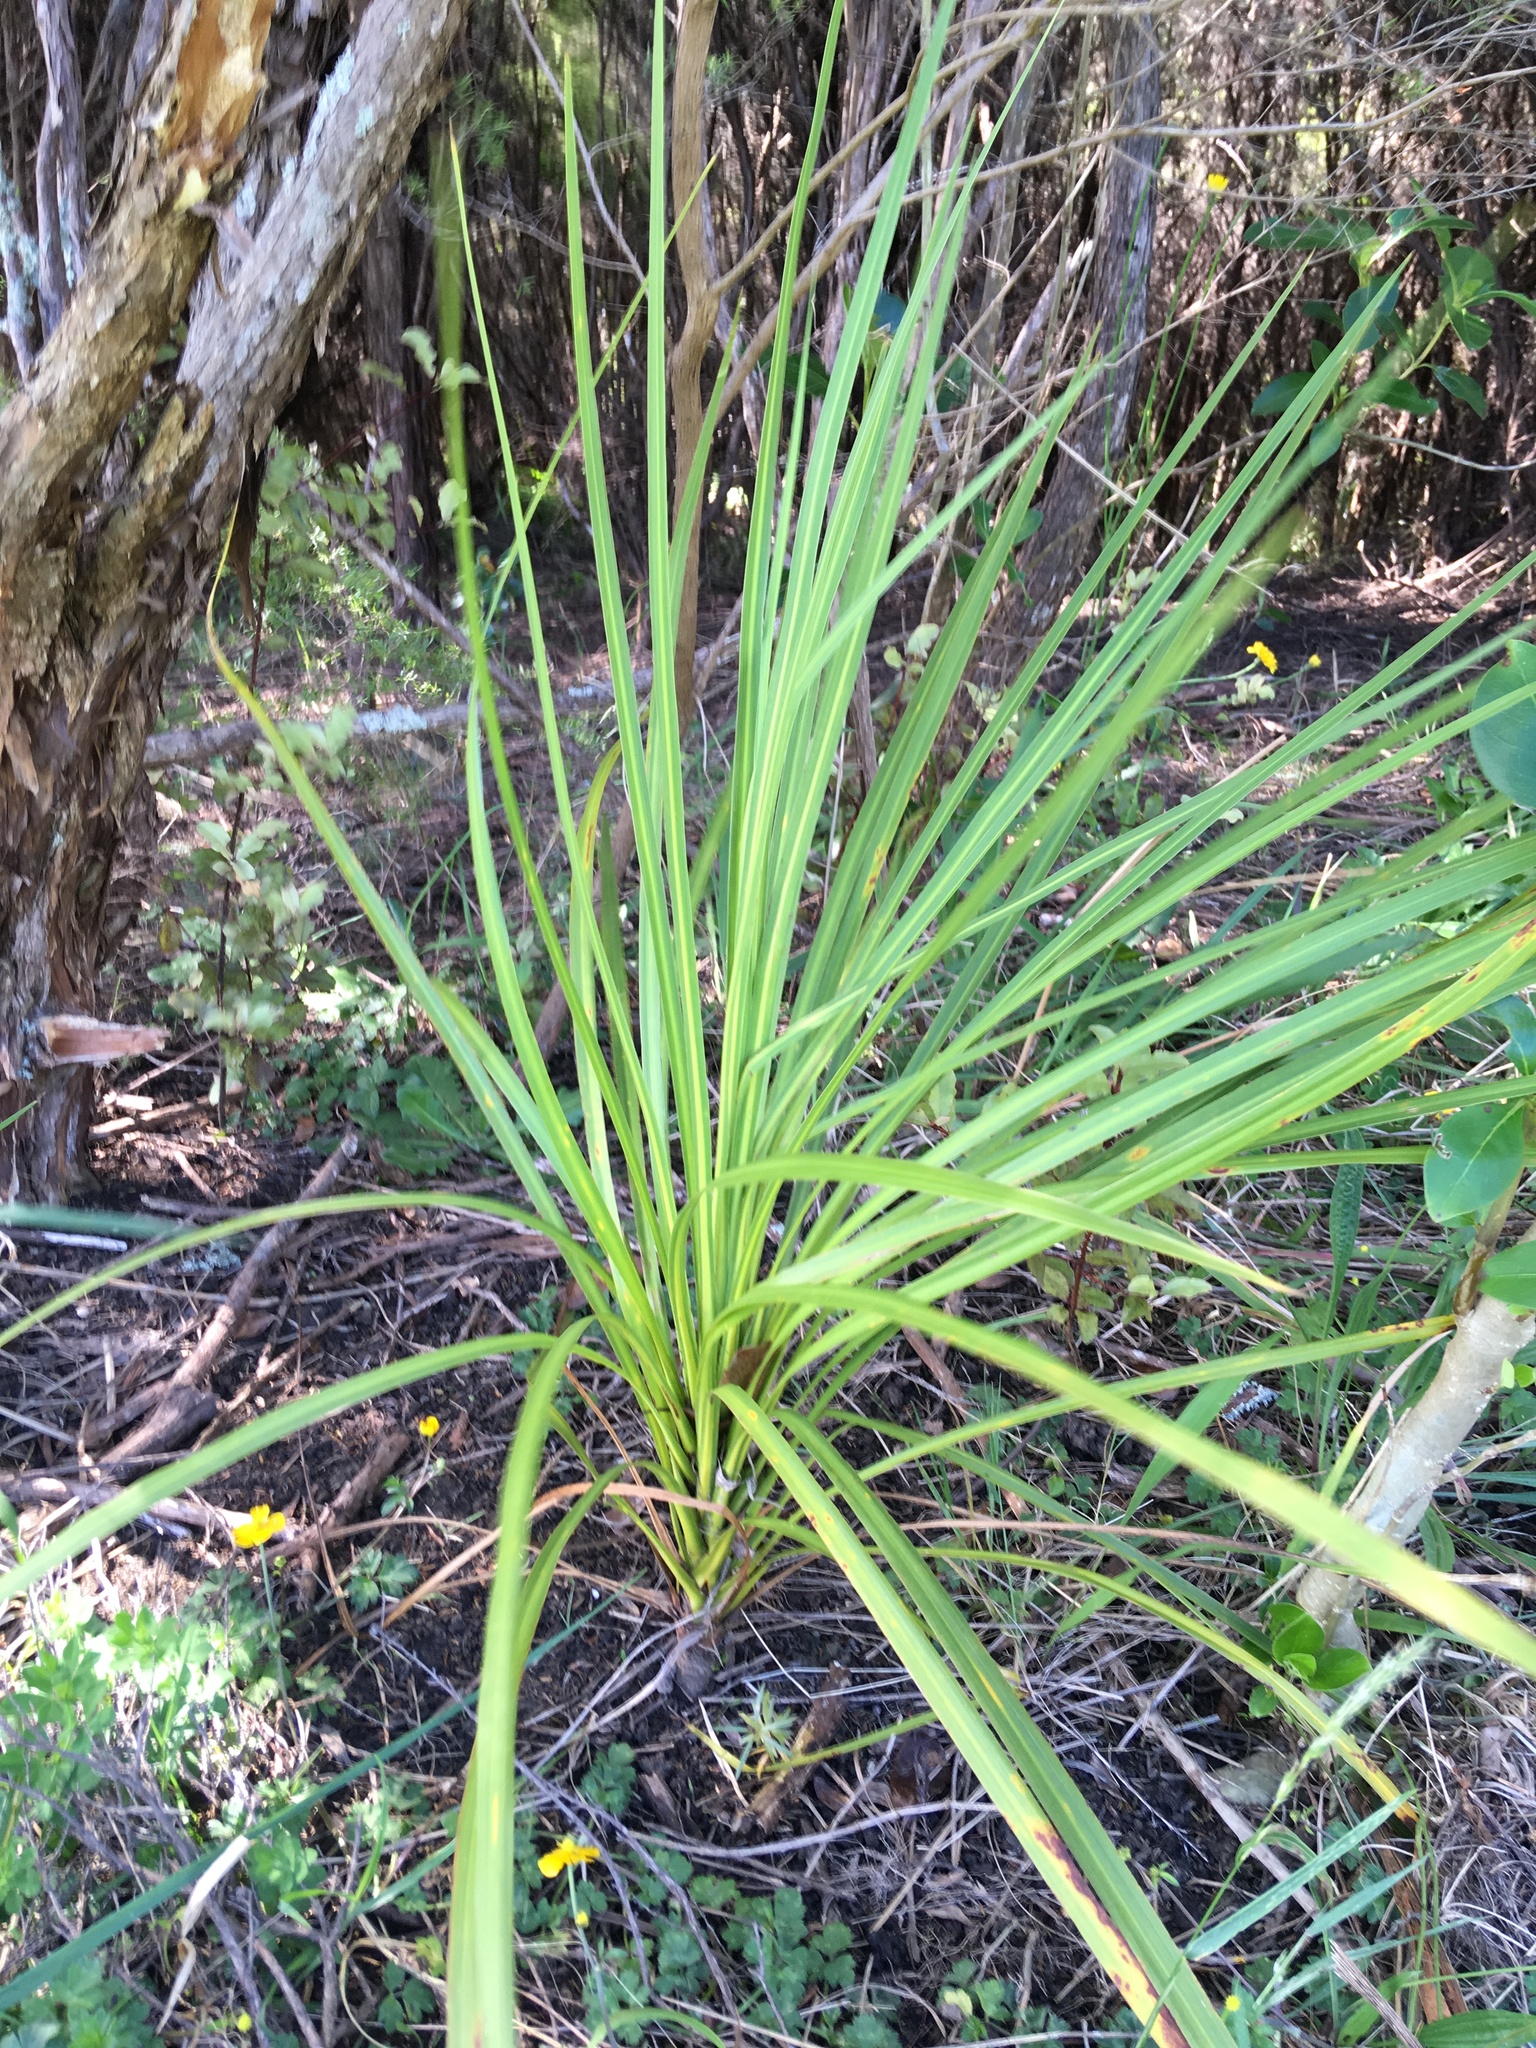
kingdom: Plantae
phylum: Tracheophyta
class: Liliopsida
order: Asparagales
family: Asparagaceae
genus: Cordyline
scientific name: Cordyline australis
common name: Cabbage-palm
